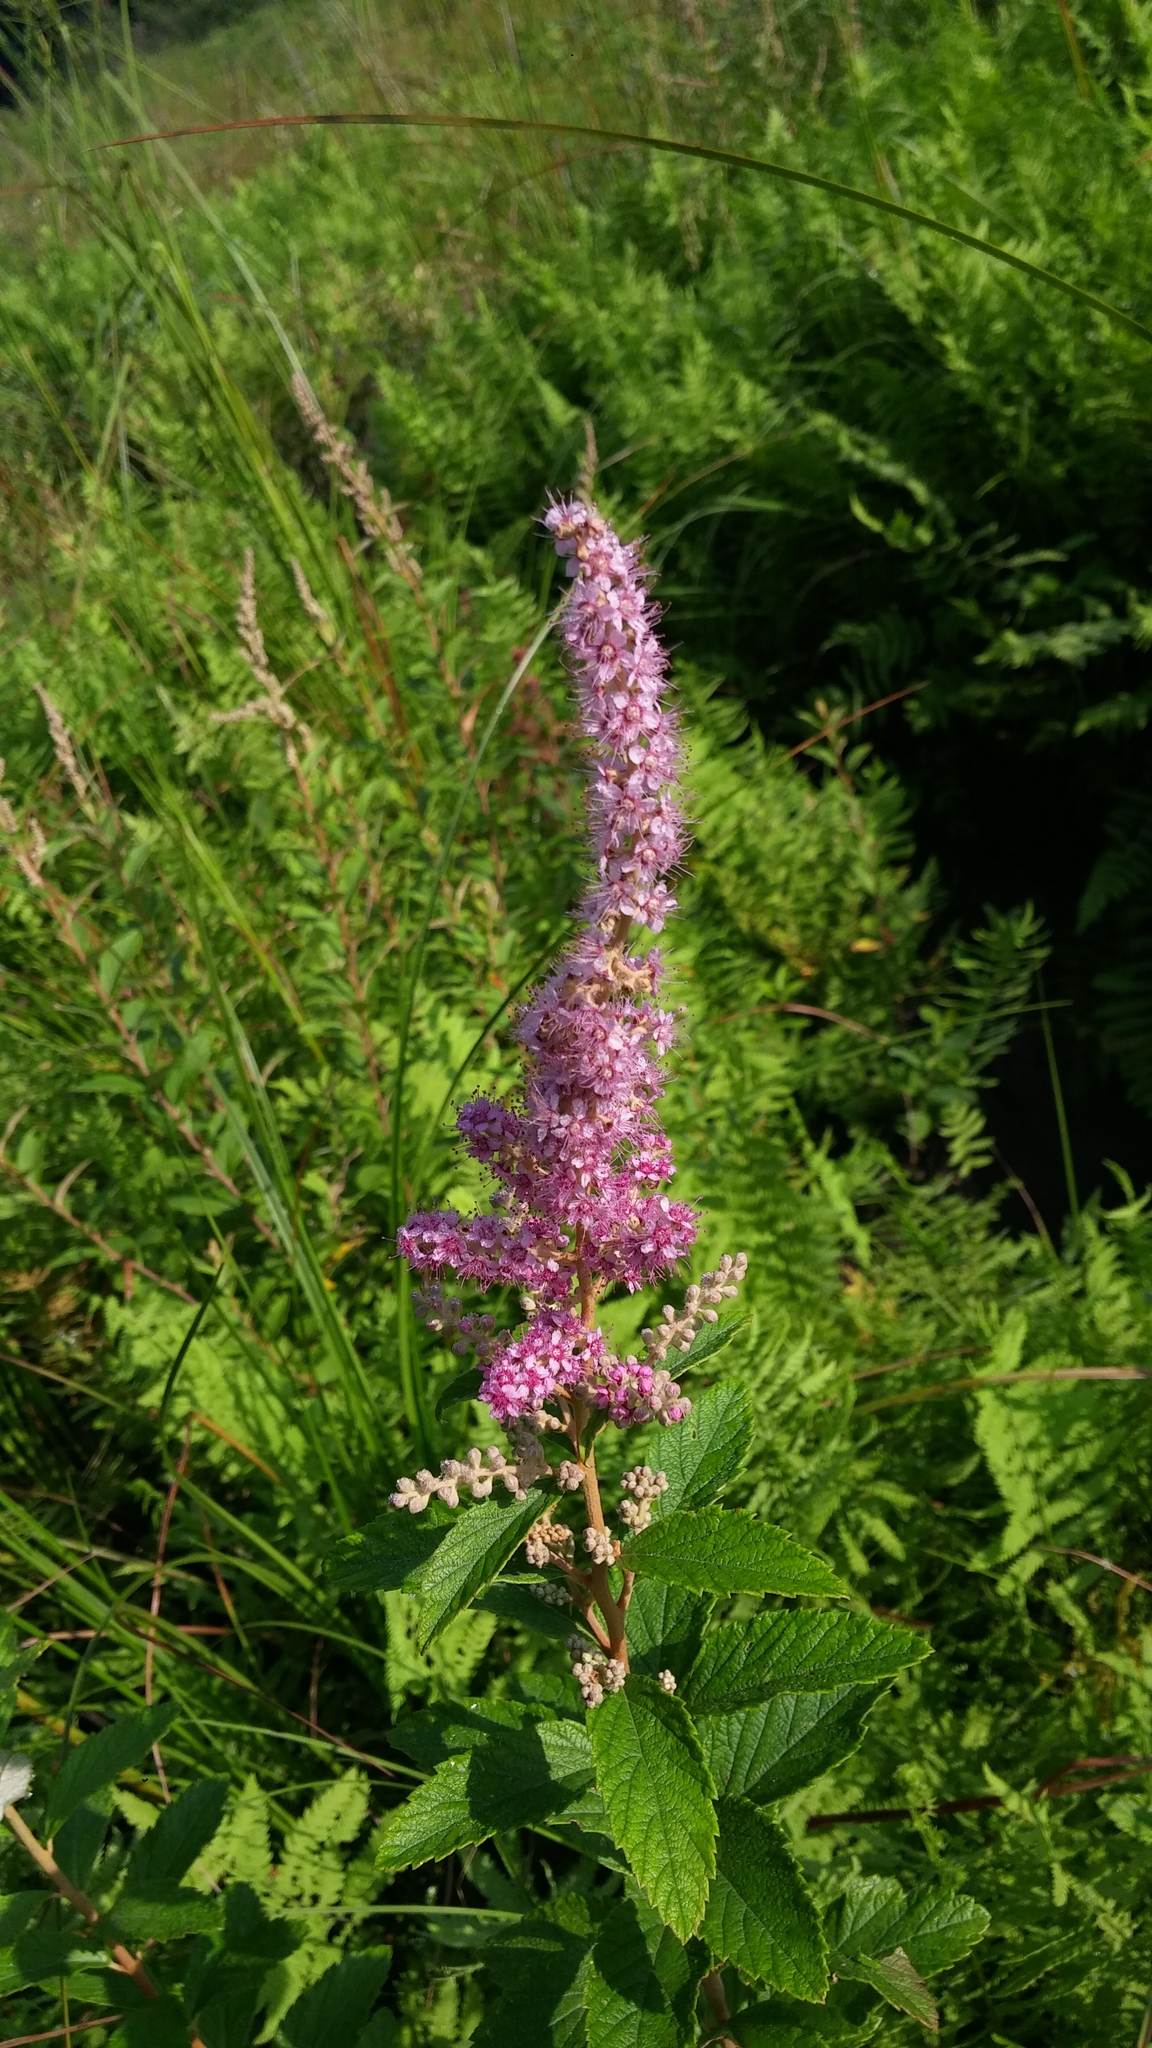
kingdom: Plantae
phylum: Tracheophyta
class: Magnoliopsida
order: Rosales
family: Rosaceae
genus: Spiraea
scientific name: Spiraea tomentosa
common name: Hardhack
